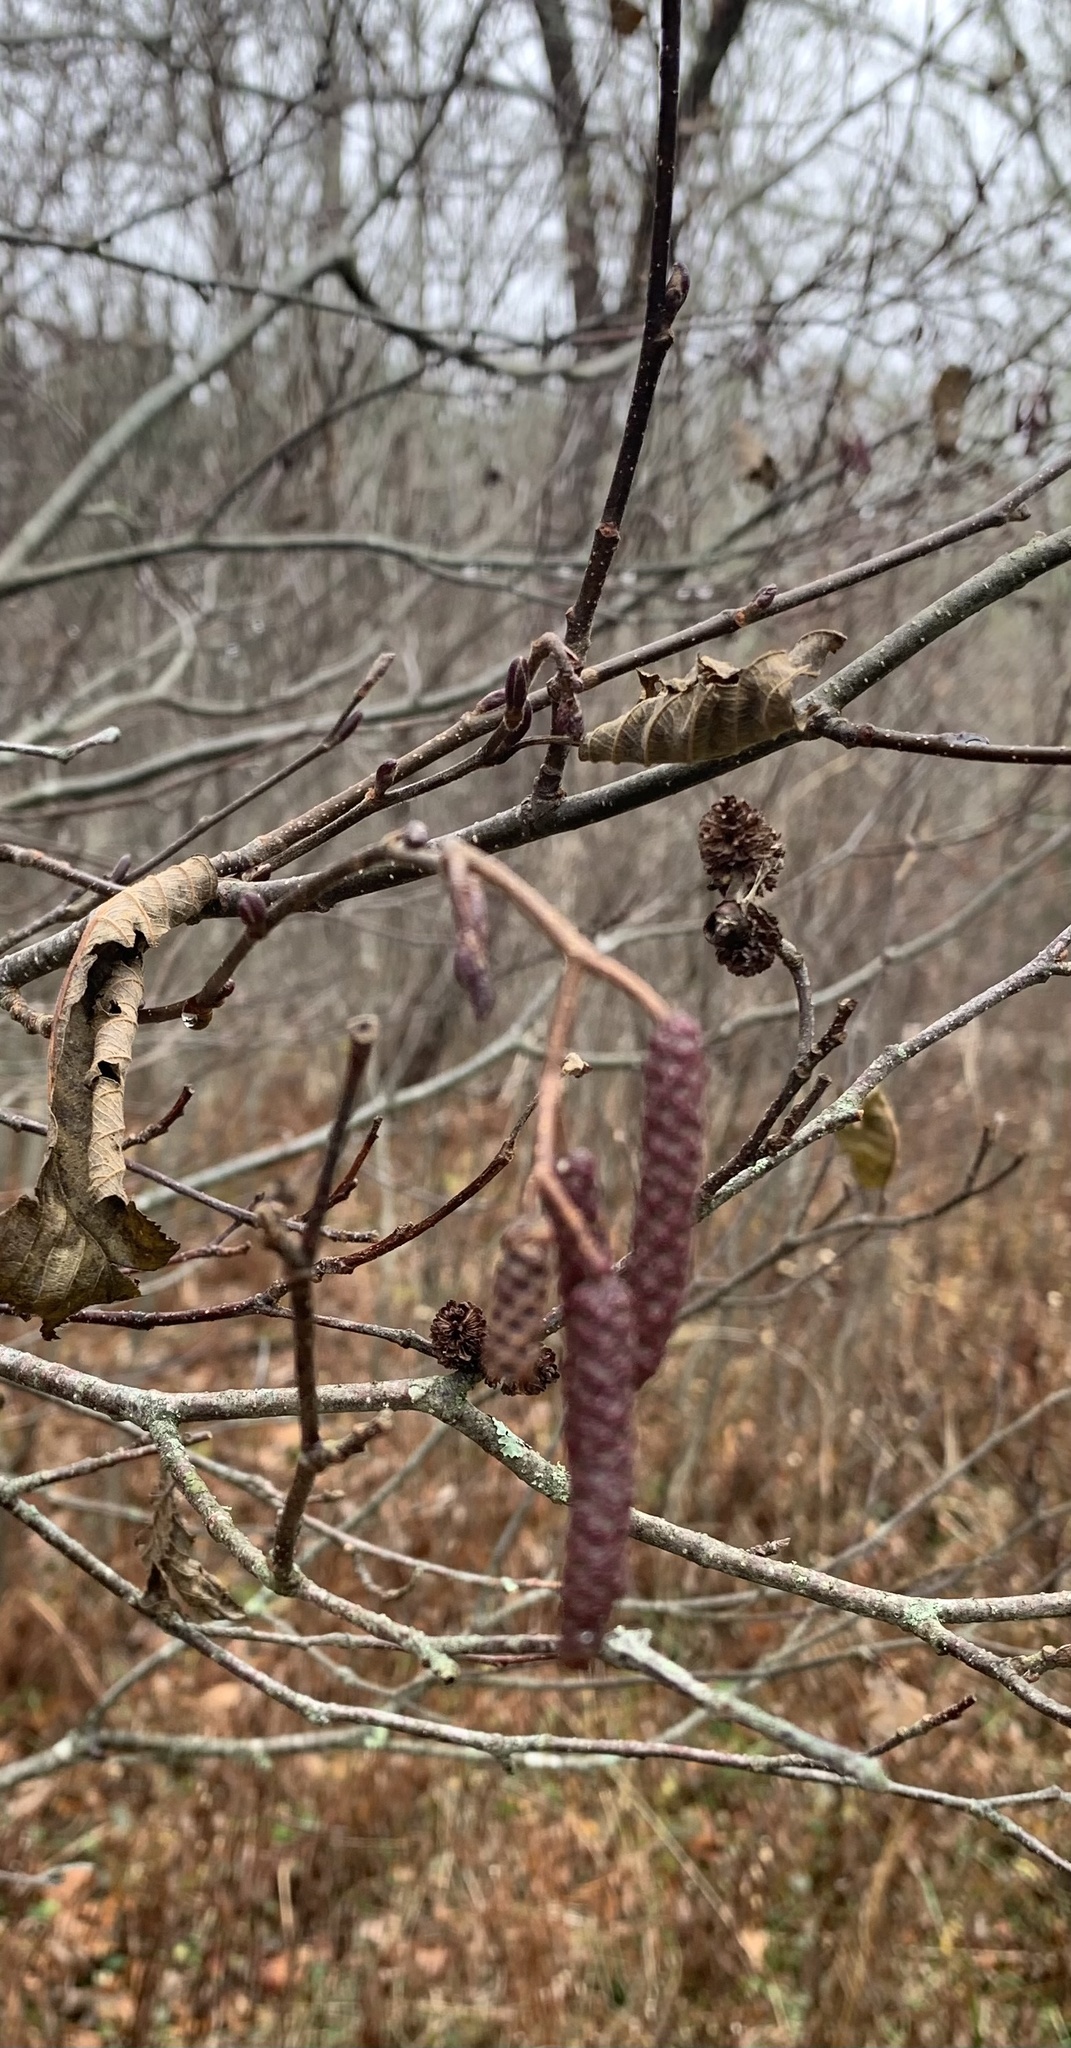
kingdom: Plantae
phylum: Tracheophyta
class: Magnoliopsida
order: Fagales
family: Betulaceae
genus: Alnus
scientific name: Alnus incana
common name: Grey alder
